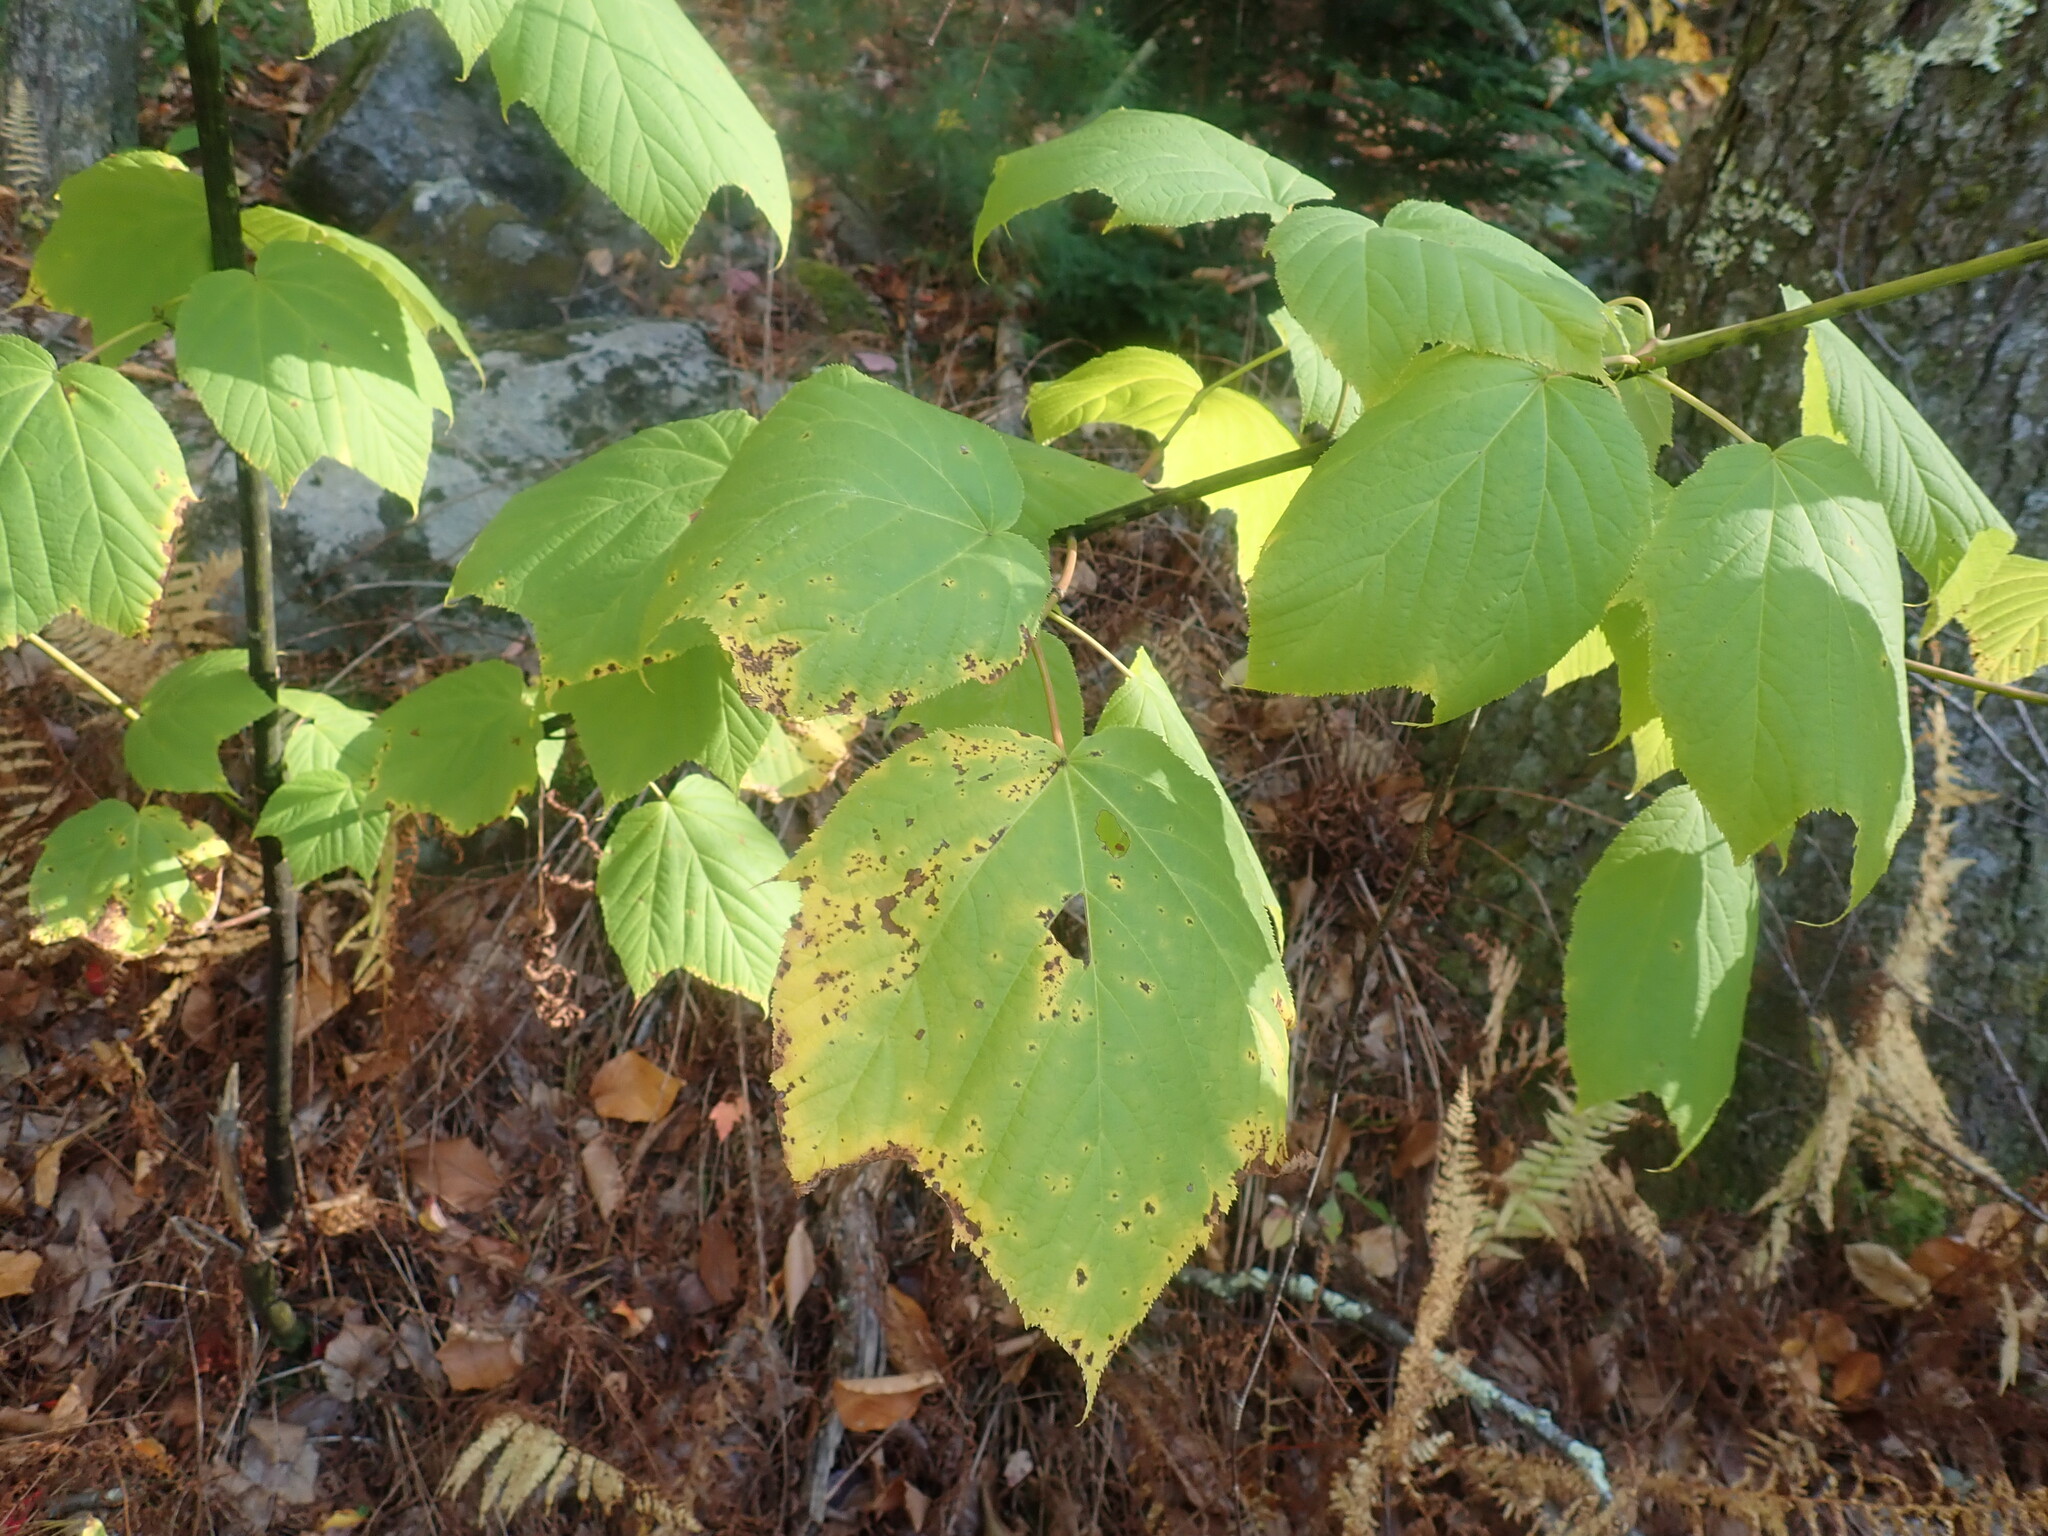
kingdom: Plantae
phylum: Tracheophyta
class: Magnoliopsida
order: Sapindales
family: Sapindaceae
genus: Acer
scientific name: Acer pensylvanicum
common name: Moosewood
